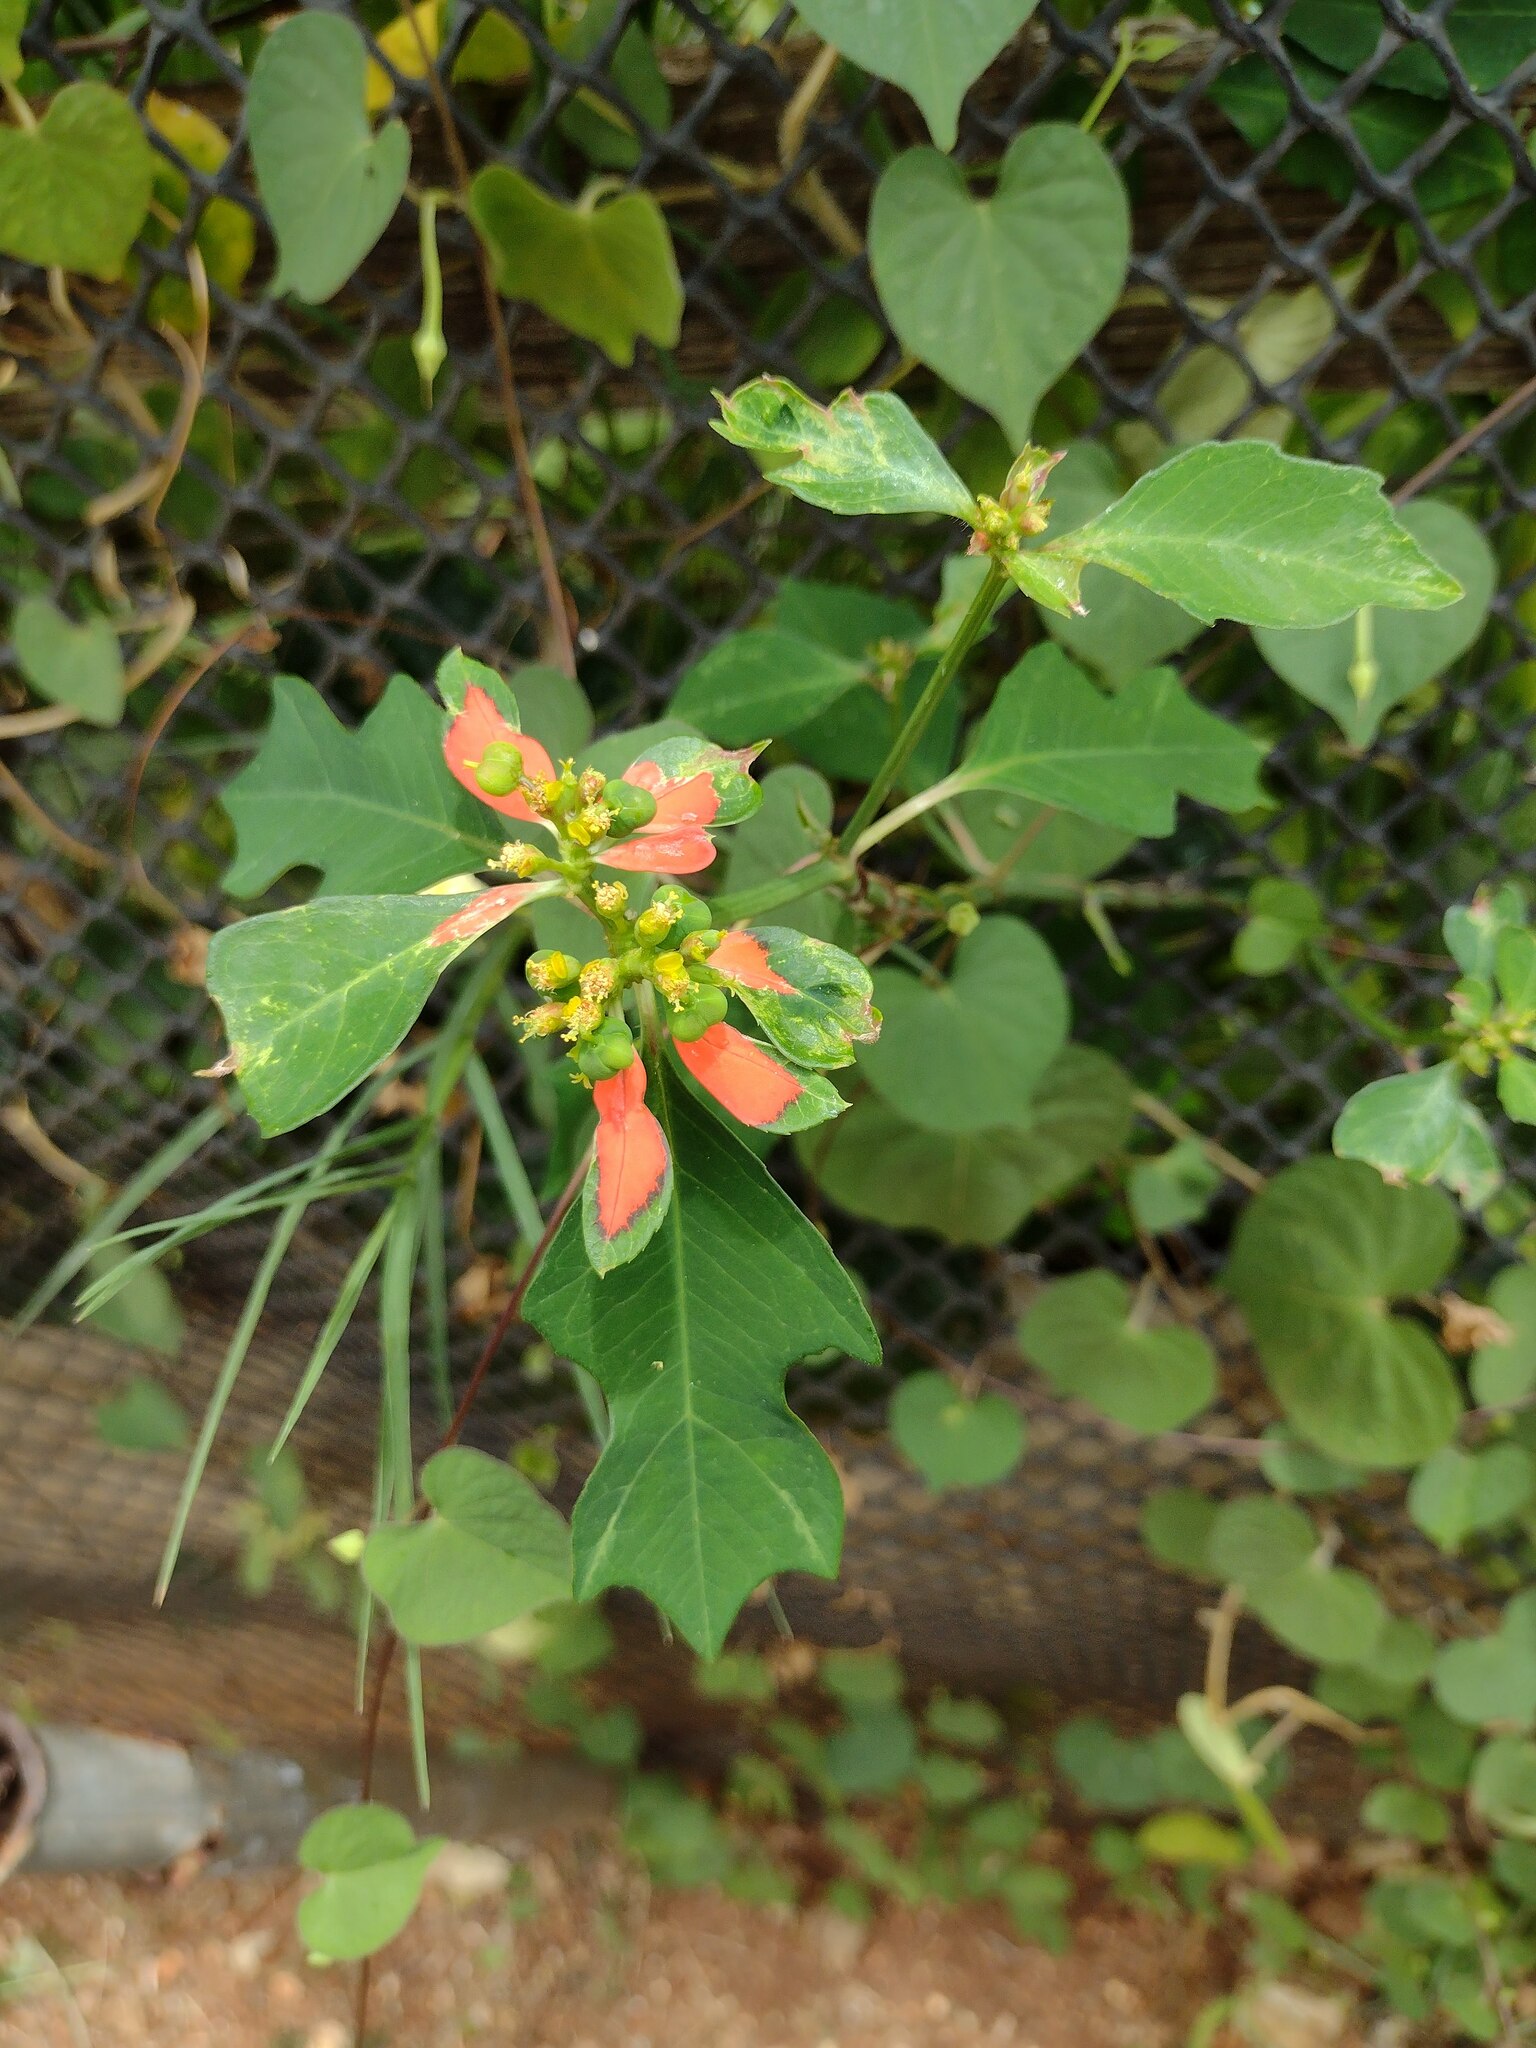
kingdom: Plantae
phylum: Tracheophyta
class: Magnoliopsida
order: Malpighiales
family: Euphorbiaceae
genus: Euphorbia
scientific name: Euphorbia heterophylla
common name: Mexican fireplant
